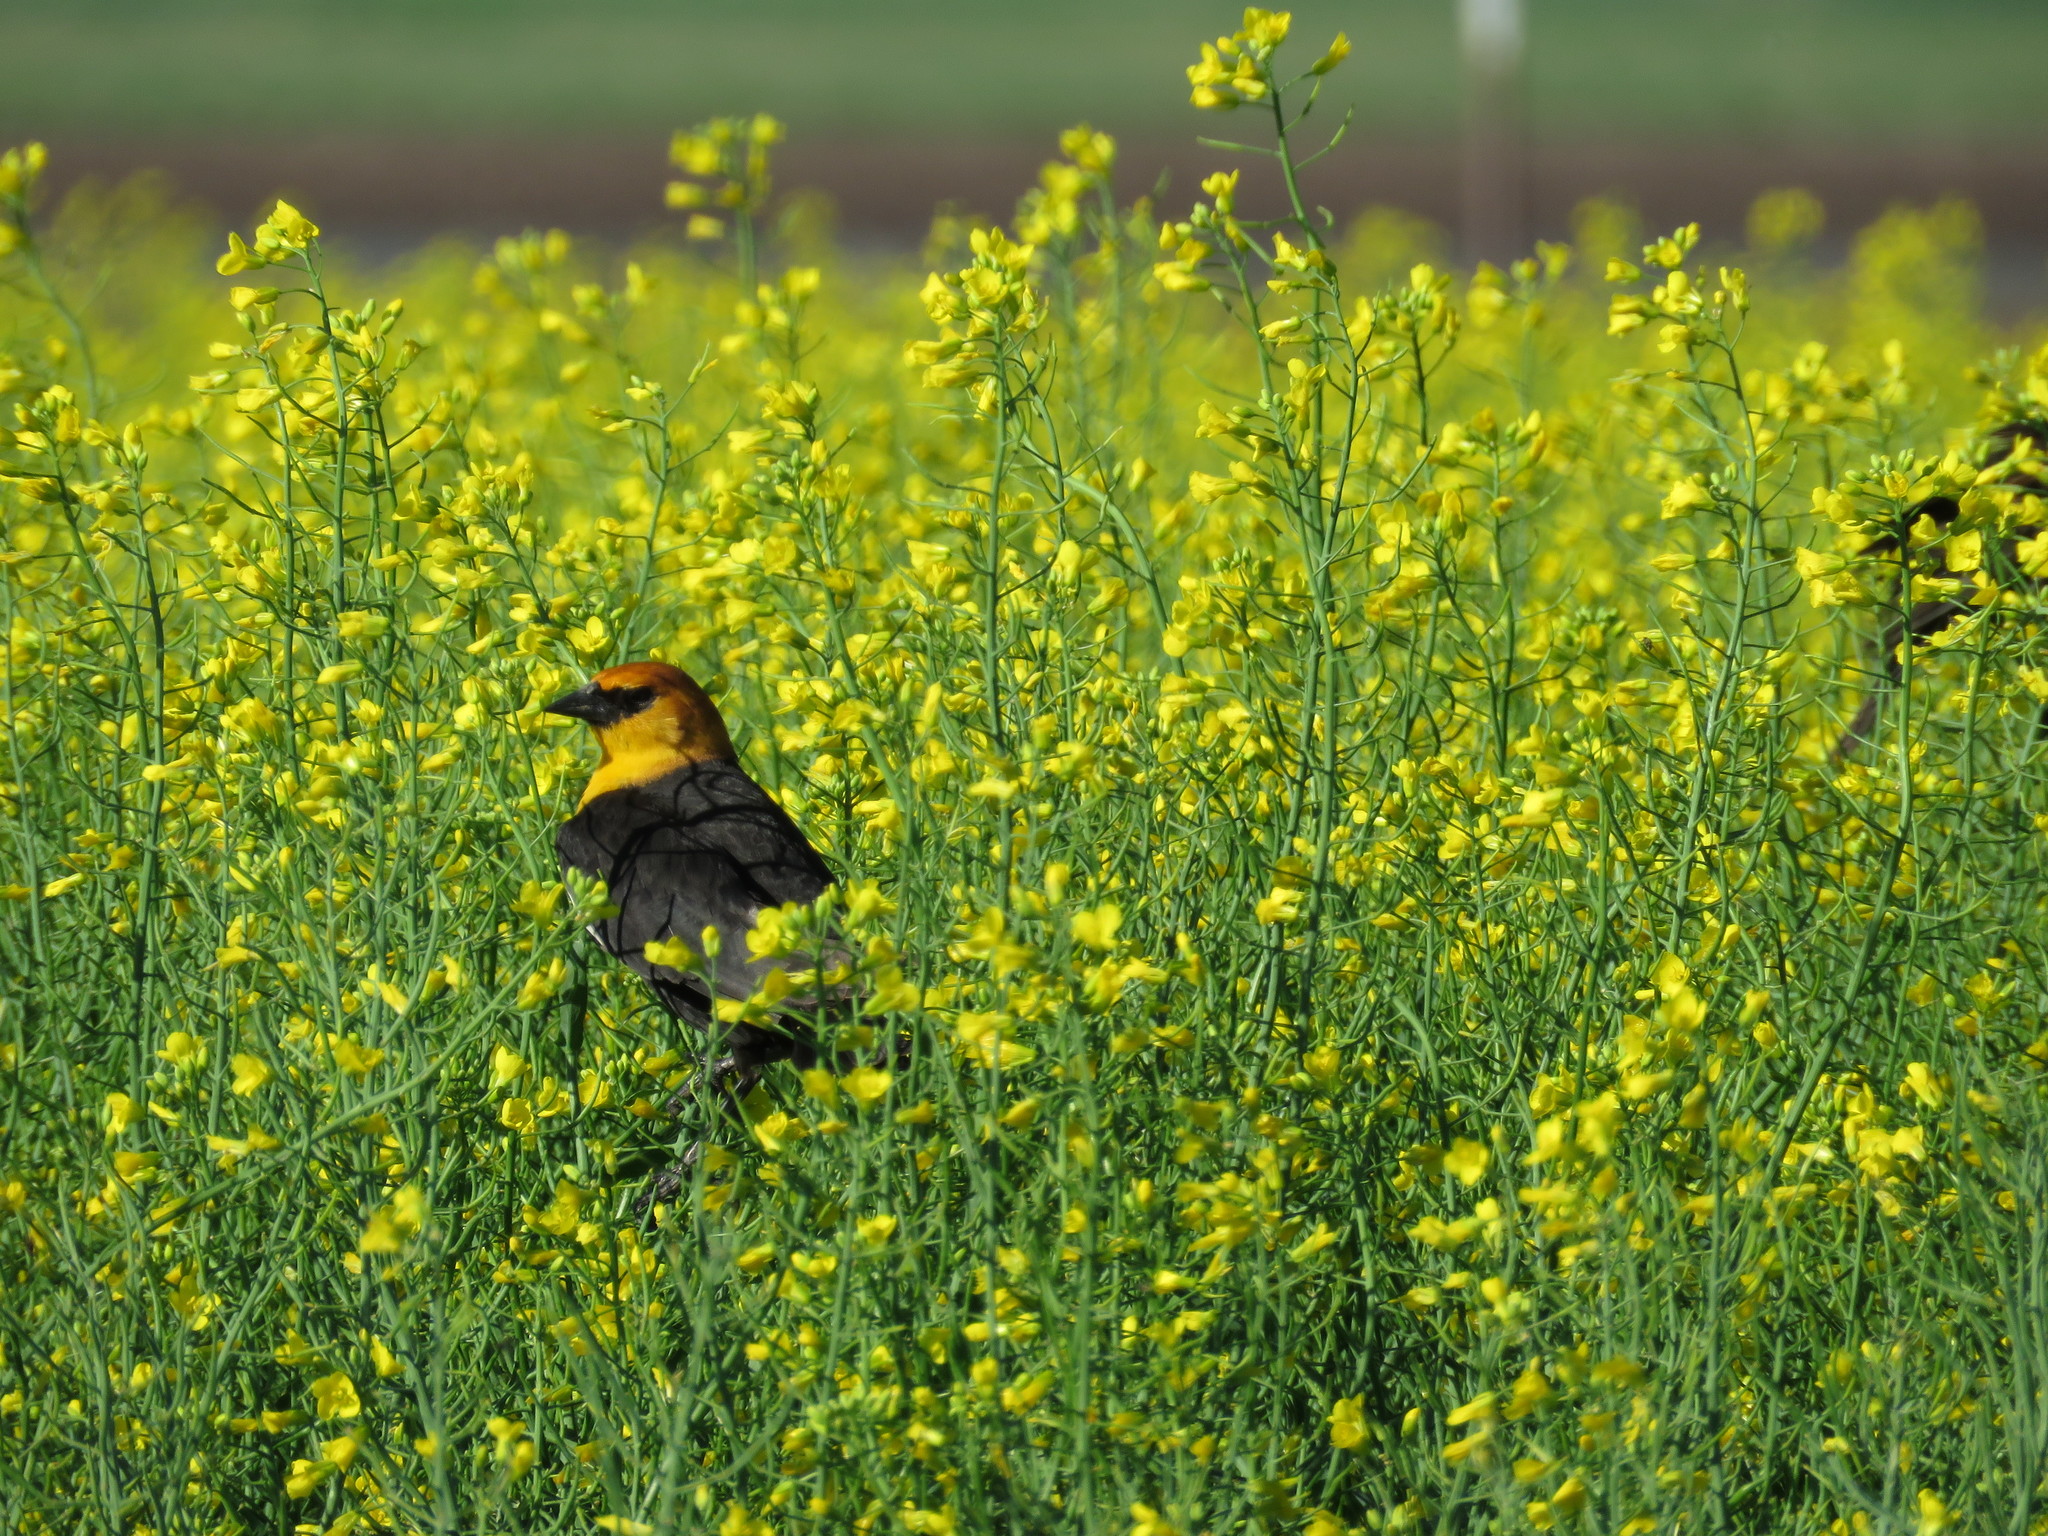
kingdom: Animalia
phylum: Chordata
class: Aves
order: Passeriformes
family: Icteridae
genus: Xanthocephalus
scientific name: Xanthocephalus xanthocephalus
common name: Yellow-headed blackbird
